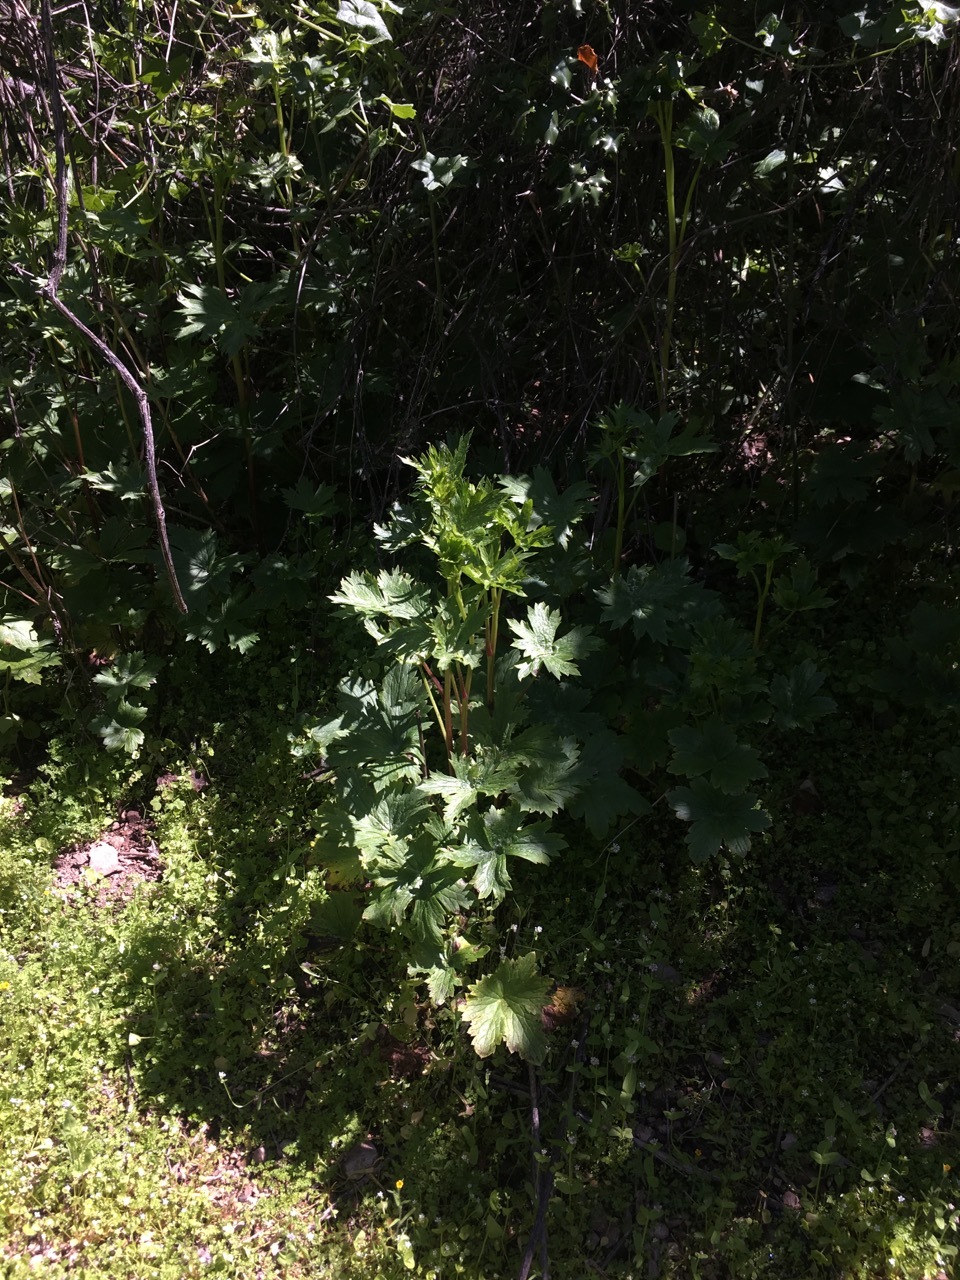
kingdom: Plantae
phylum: Tracheophyta
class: Magnoliopsida
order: Ranunculales
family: Ranunculaceae
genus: Delphinium
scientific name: Delphinium californicum
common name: California larkspur
